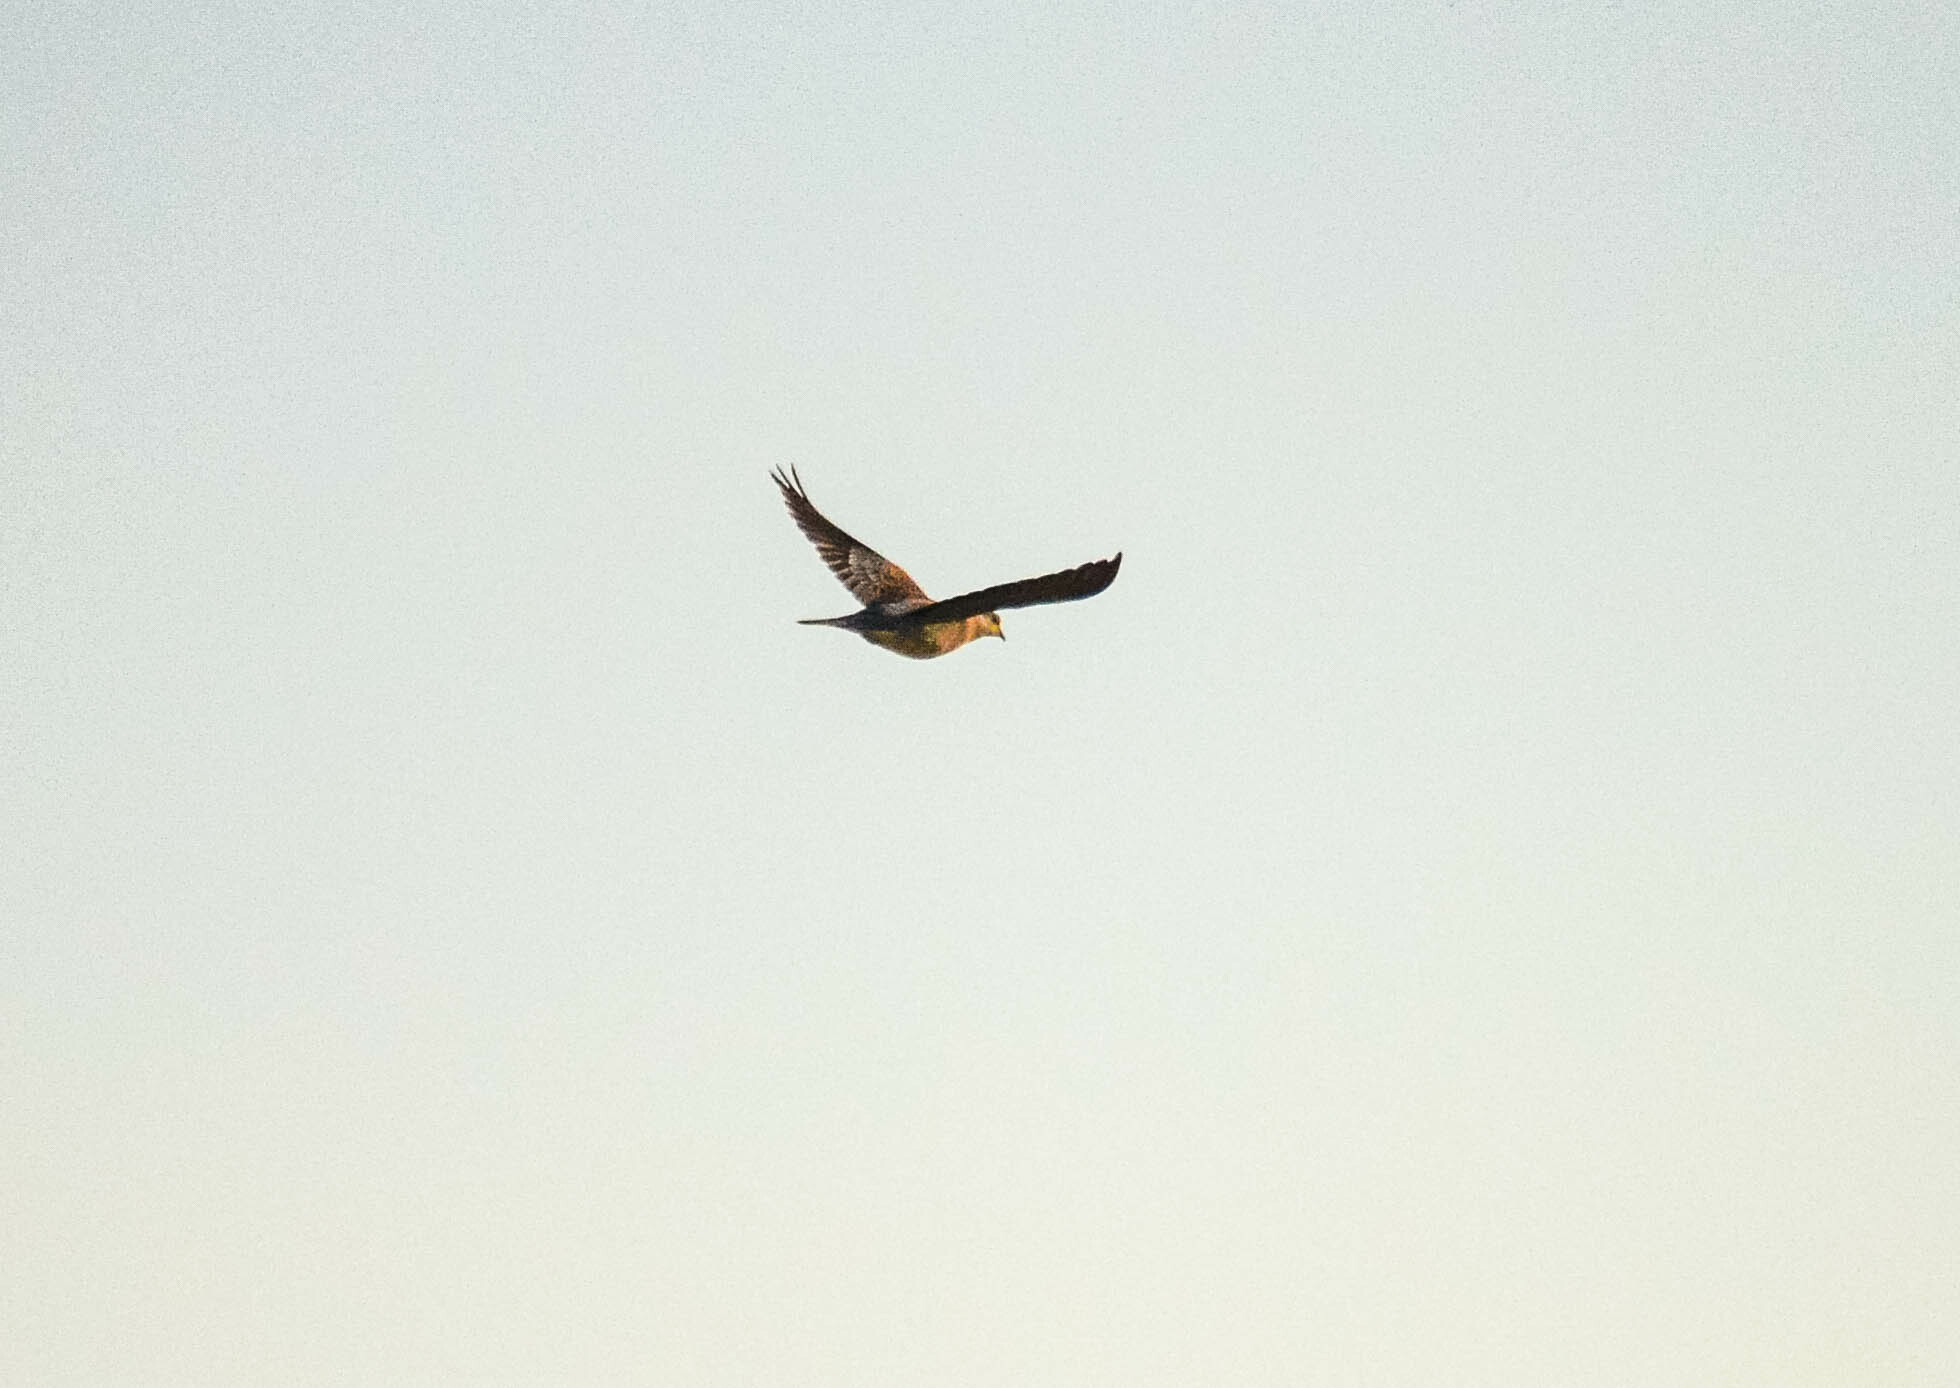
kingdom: Animalia
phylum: Chordata
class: Aves
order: Columbiformes
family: Columbidae
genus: Streptopelia
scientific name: Streptopelia orientalis
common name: Oriental turtle dove
